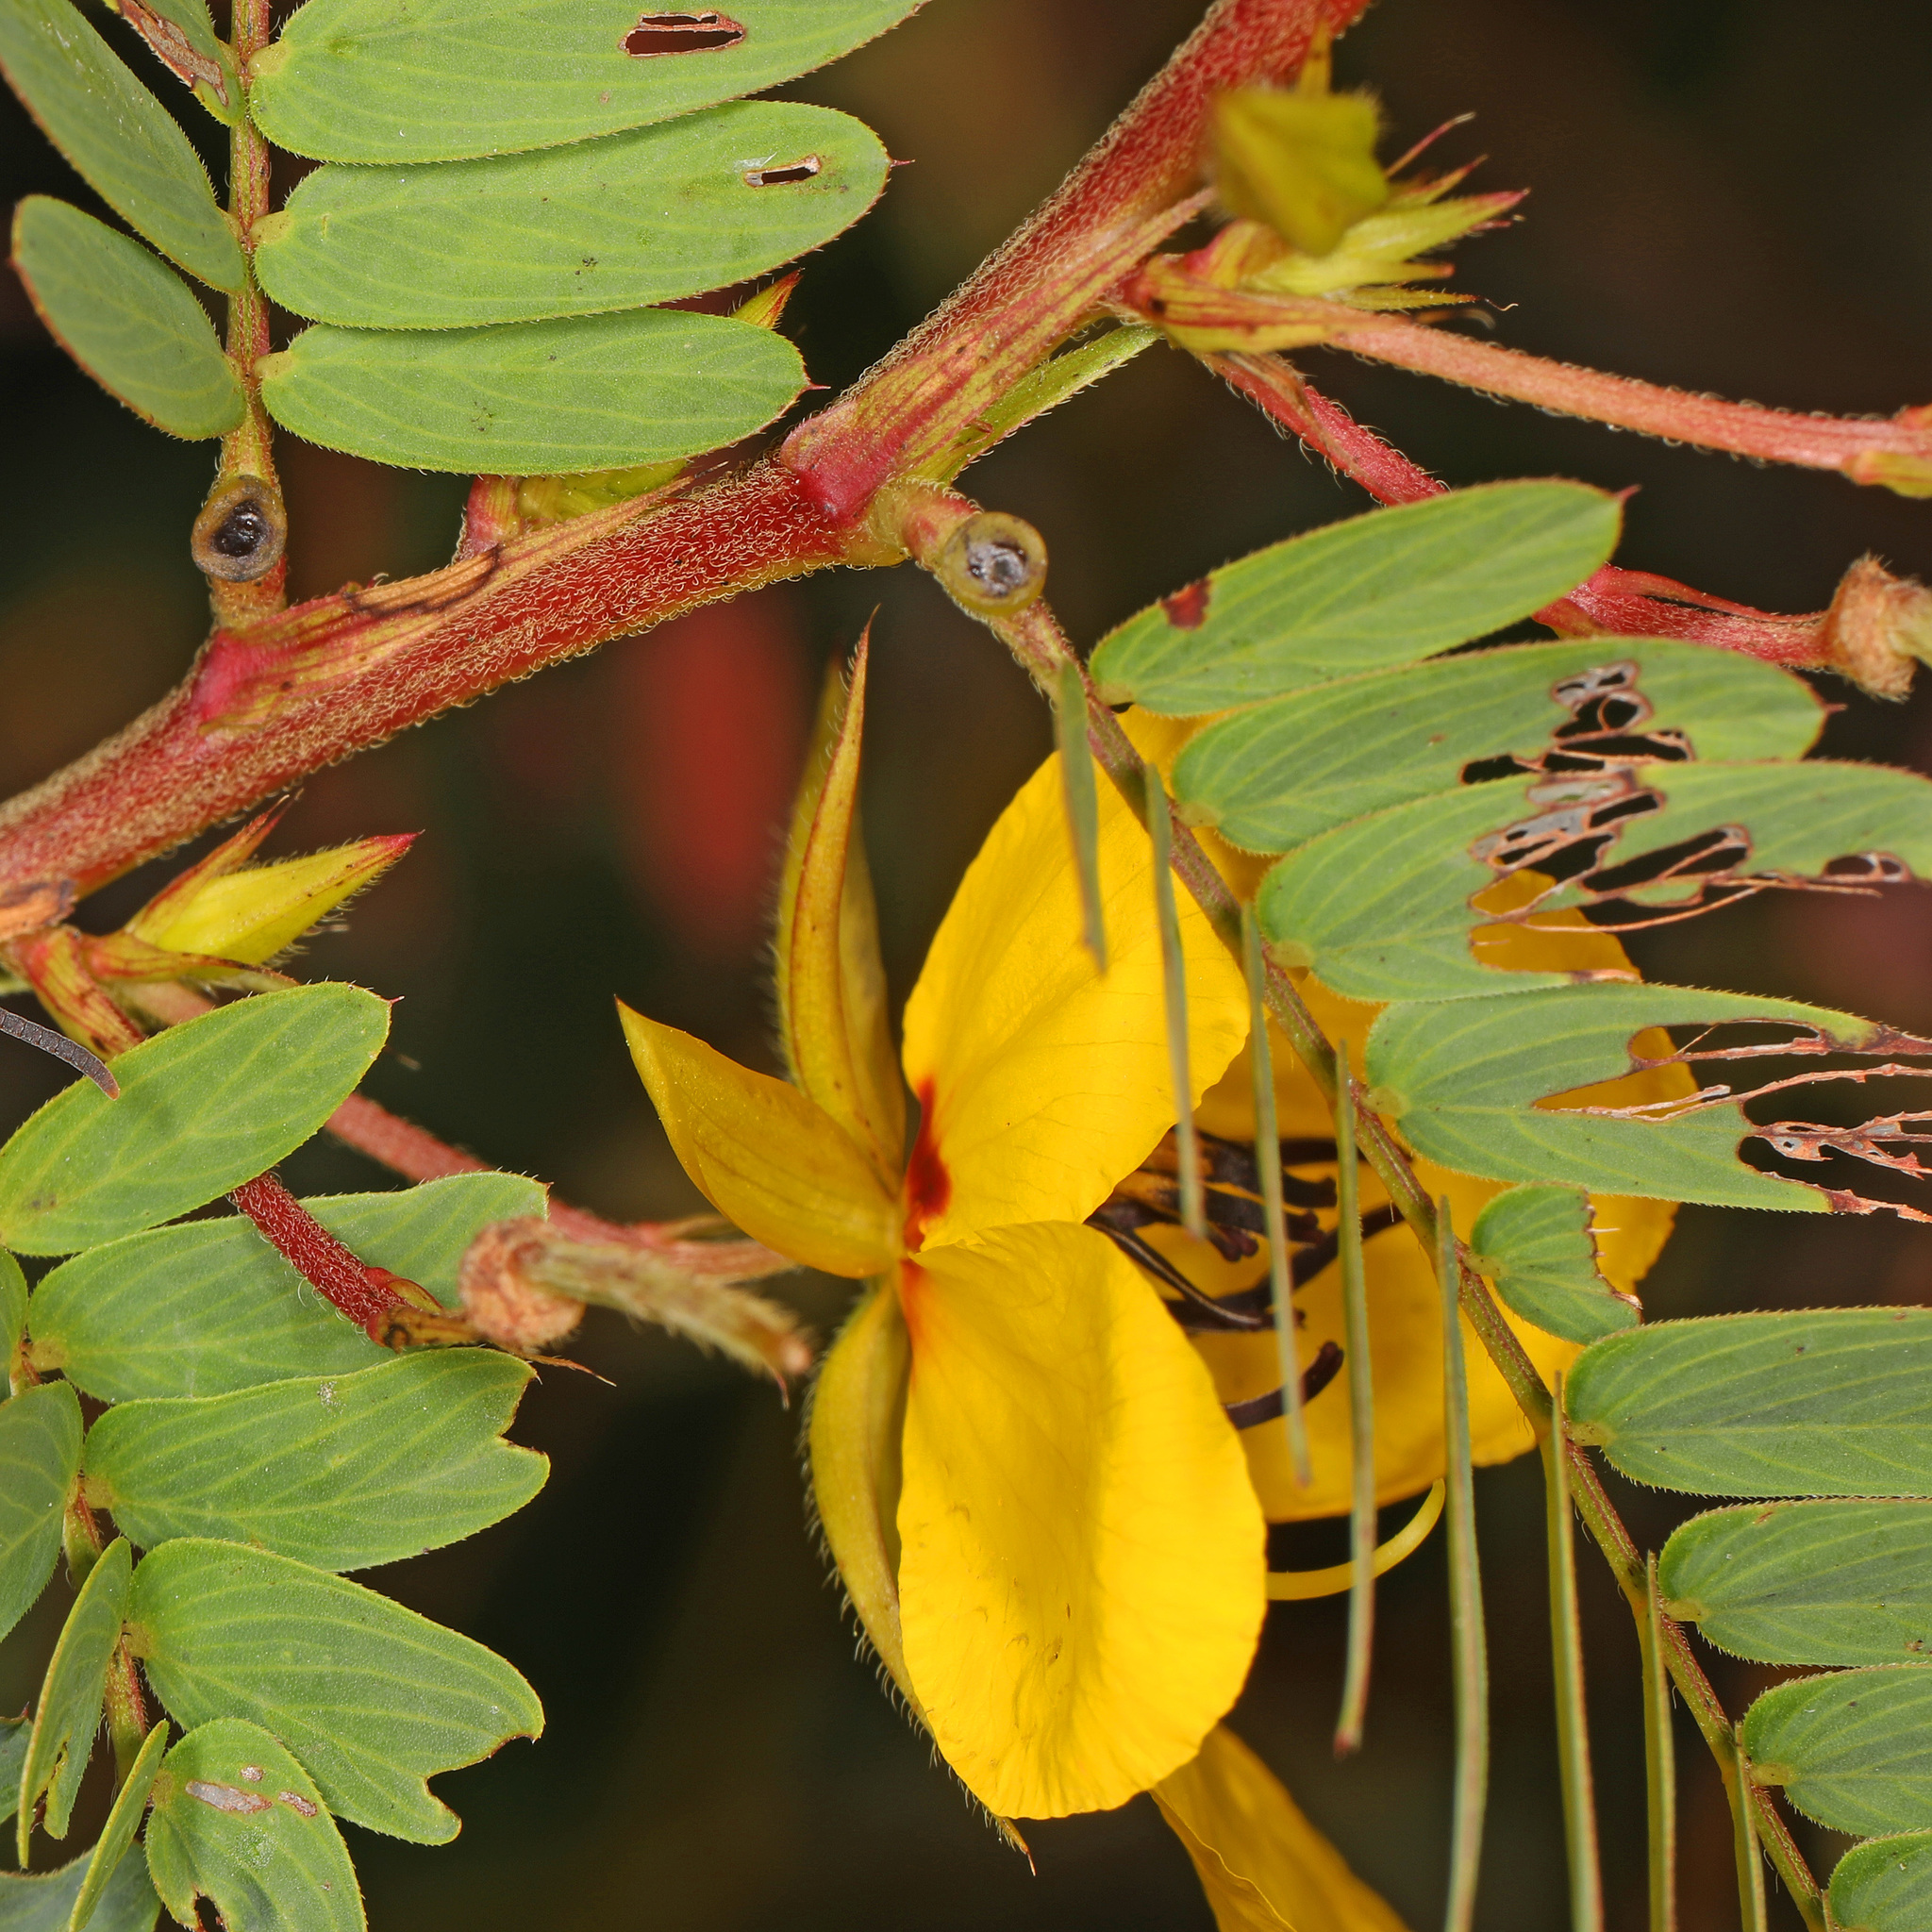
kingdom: Plantae
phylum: Tracheophyta
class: Magnoliopsida
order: Fabales
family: Fabaceae
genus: Chamaecrista
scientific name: Chamaecrista fasciculata
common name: Golden cassia
